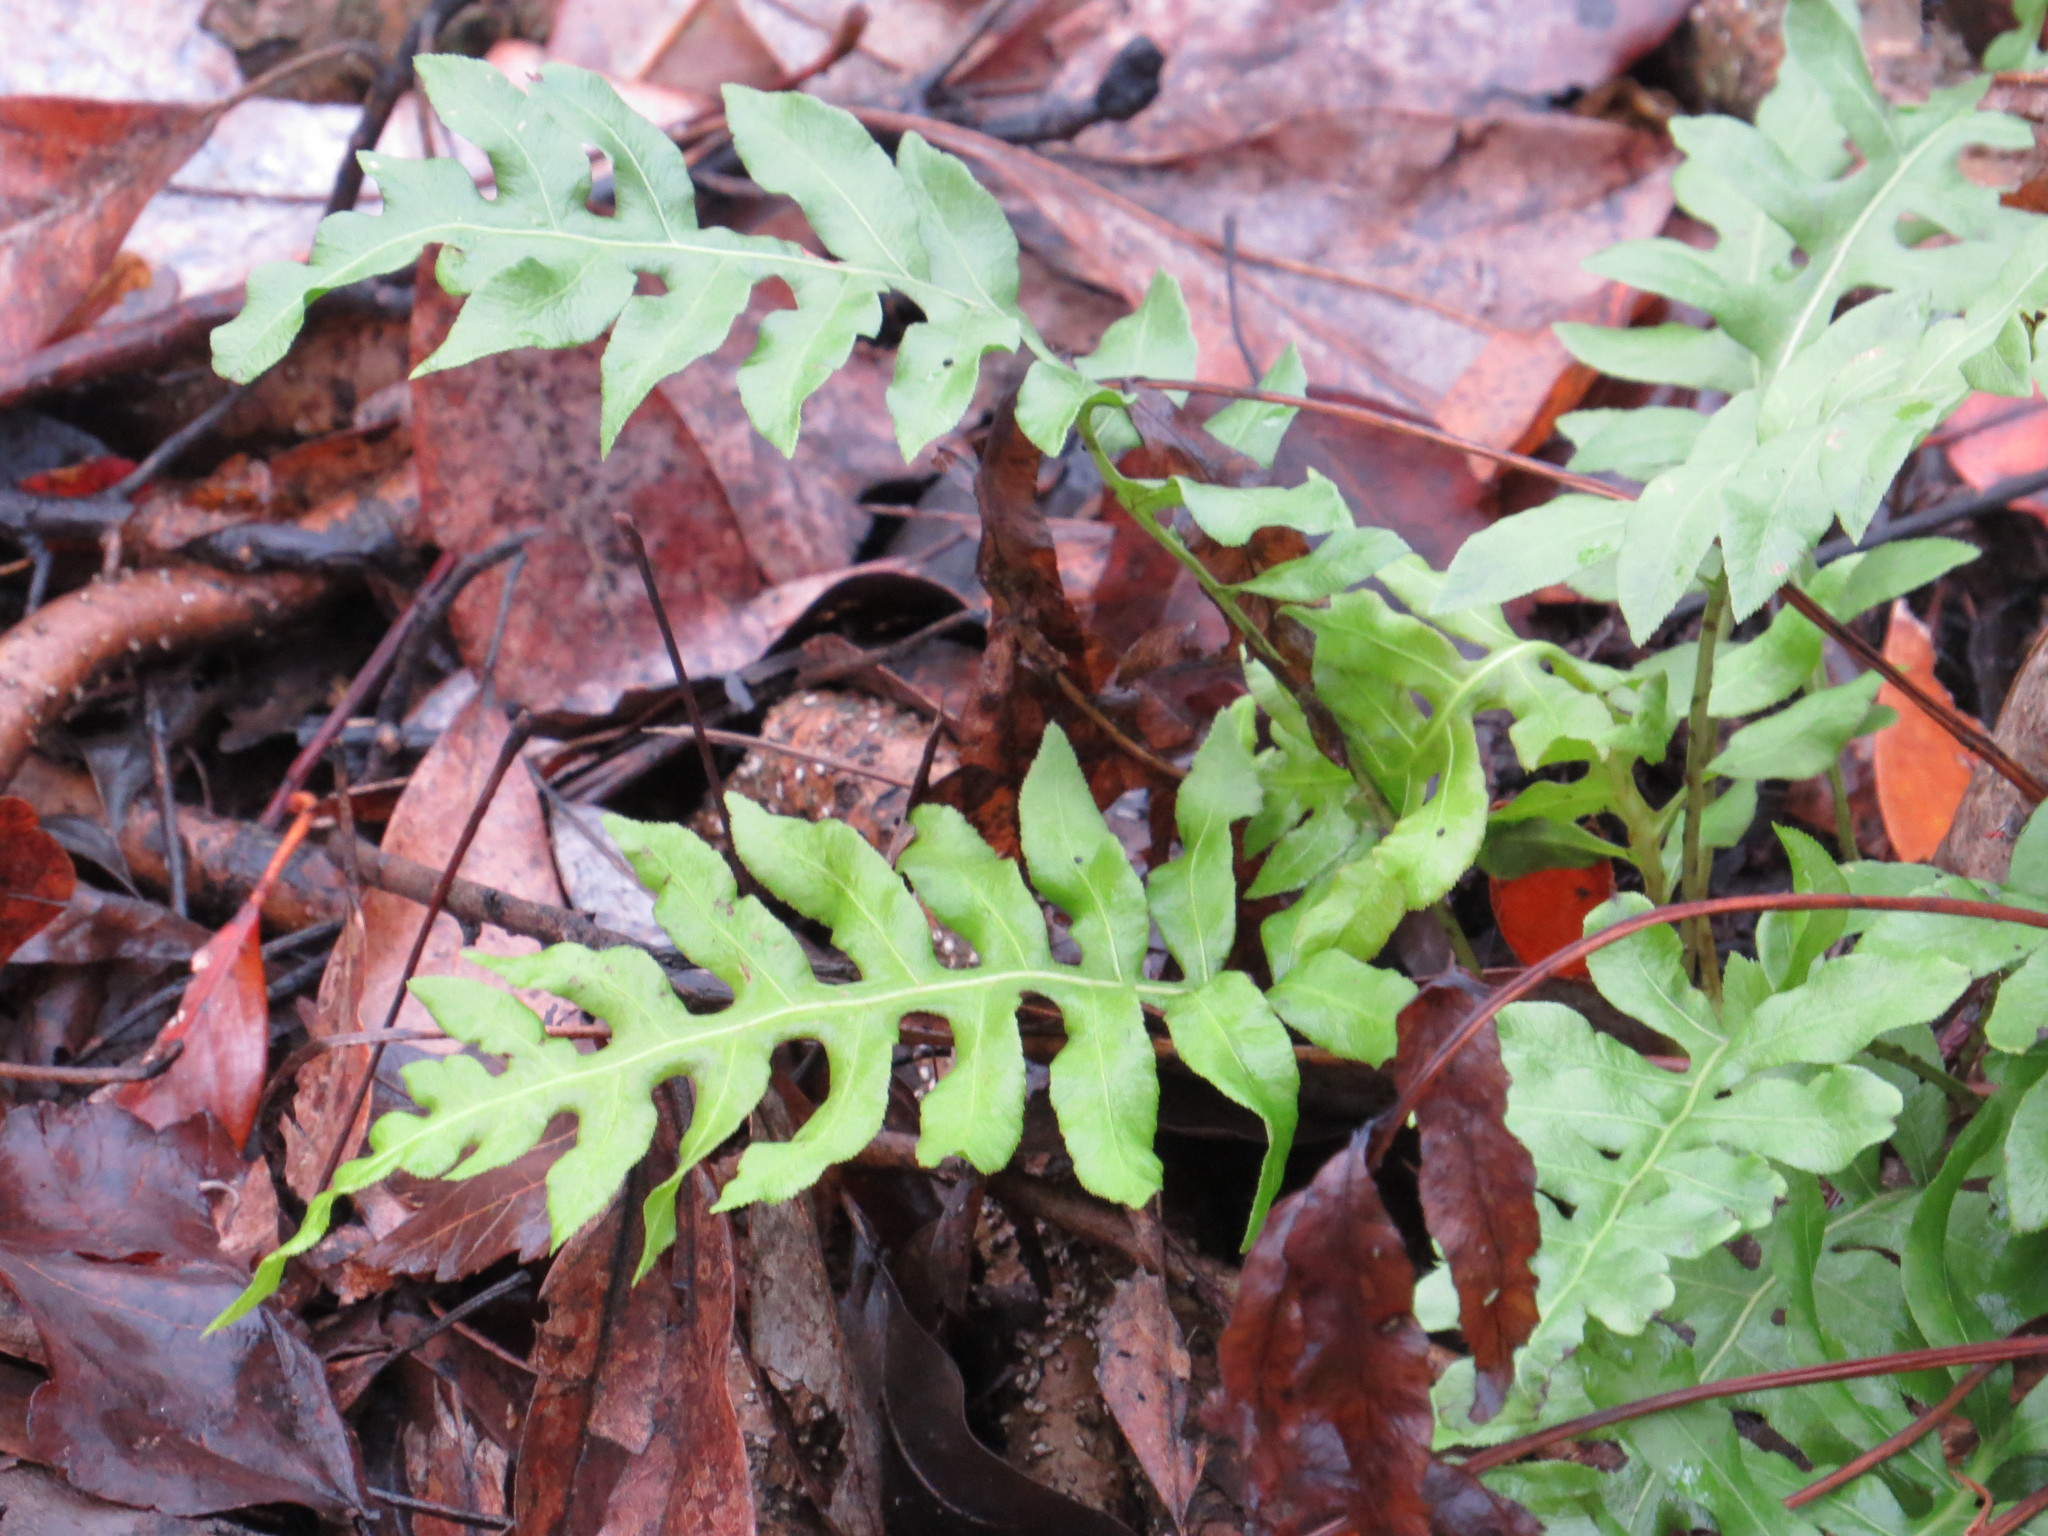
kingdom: Plantae
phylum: Tracheophyta
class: Polypodiopsida
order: Polypodiales
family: Blechnaceae
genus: Lorinseria
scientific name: Lorinseria areolata
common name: Dwarf chain fern
